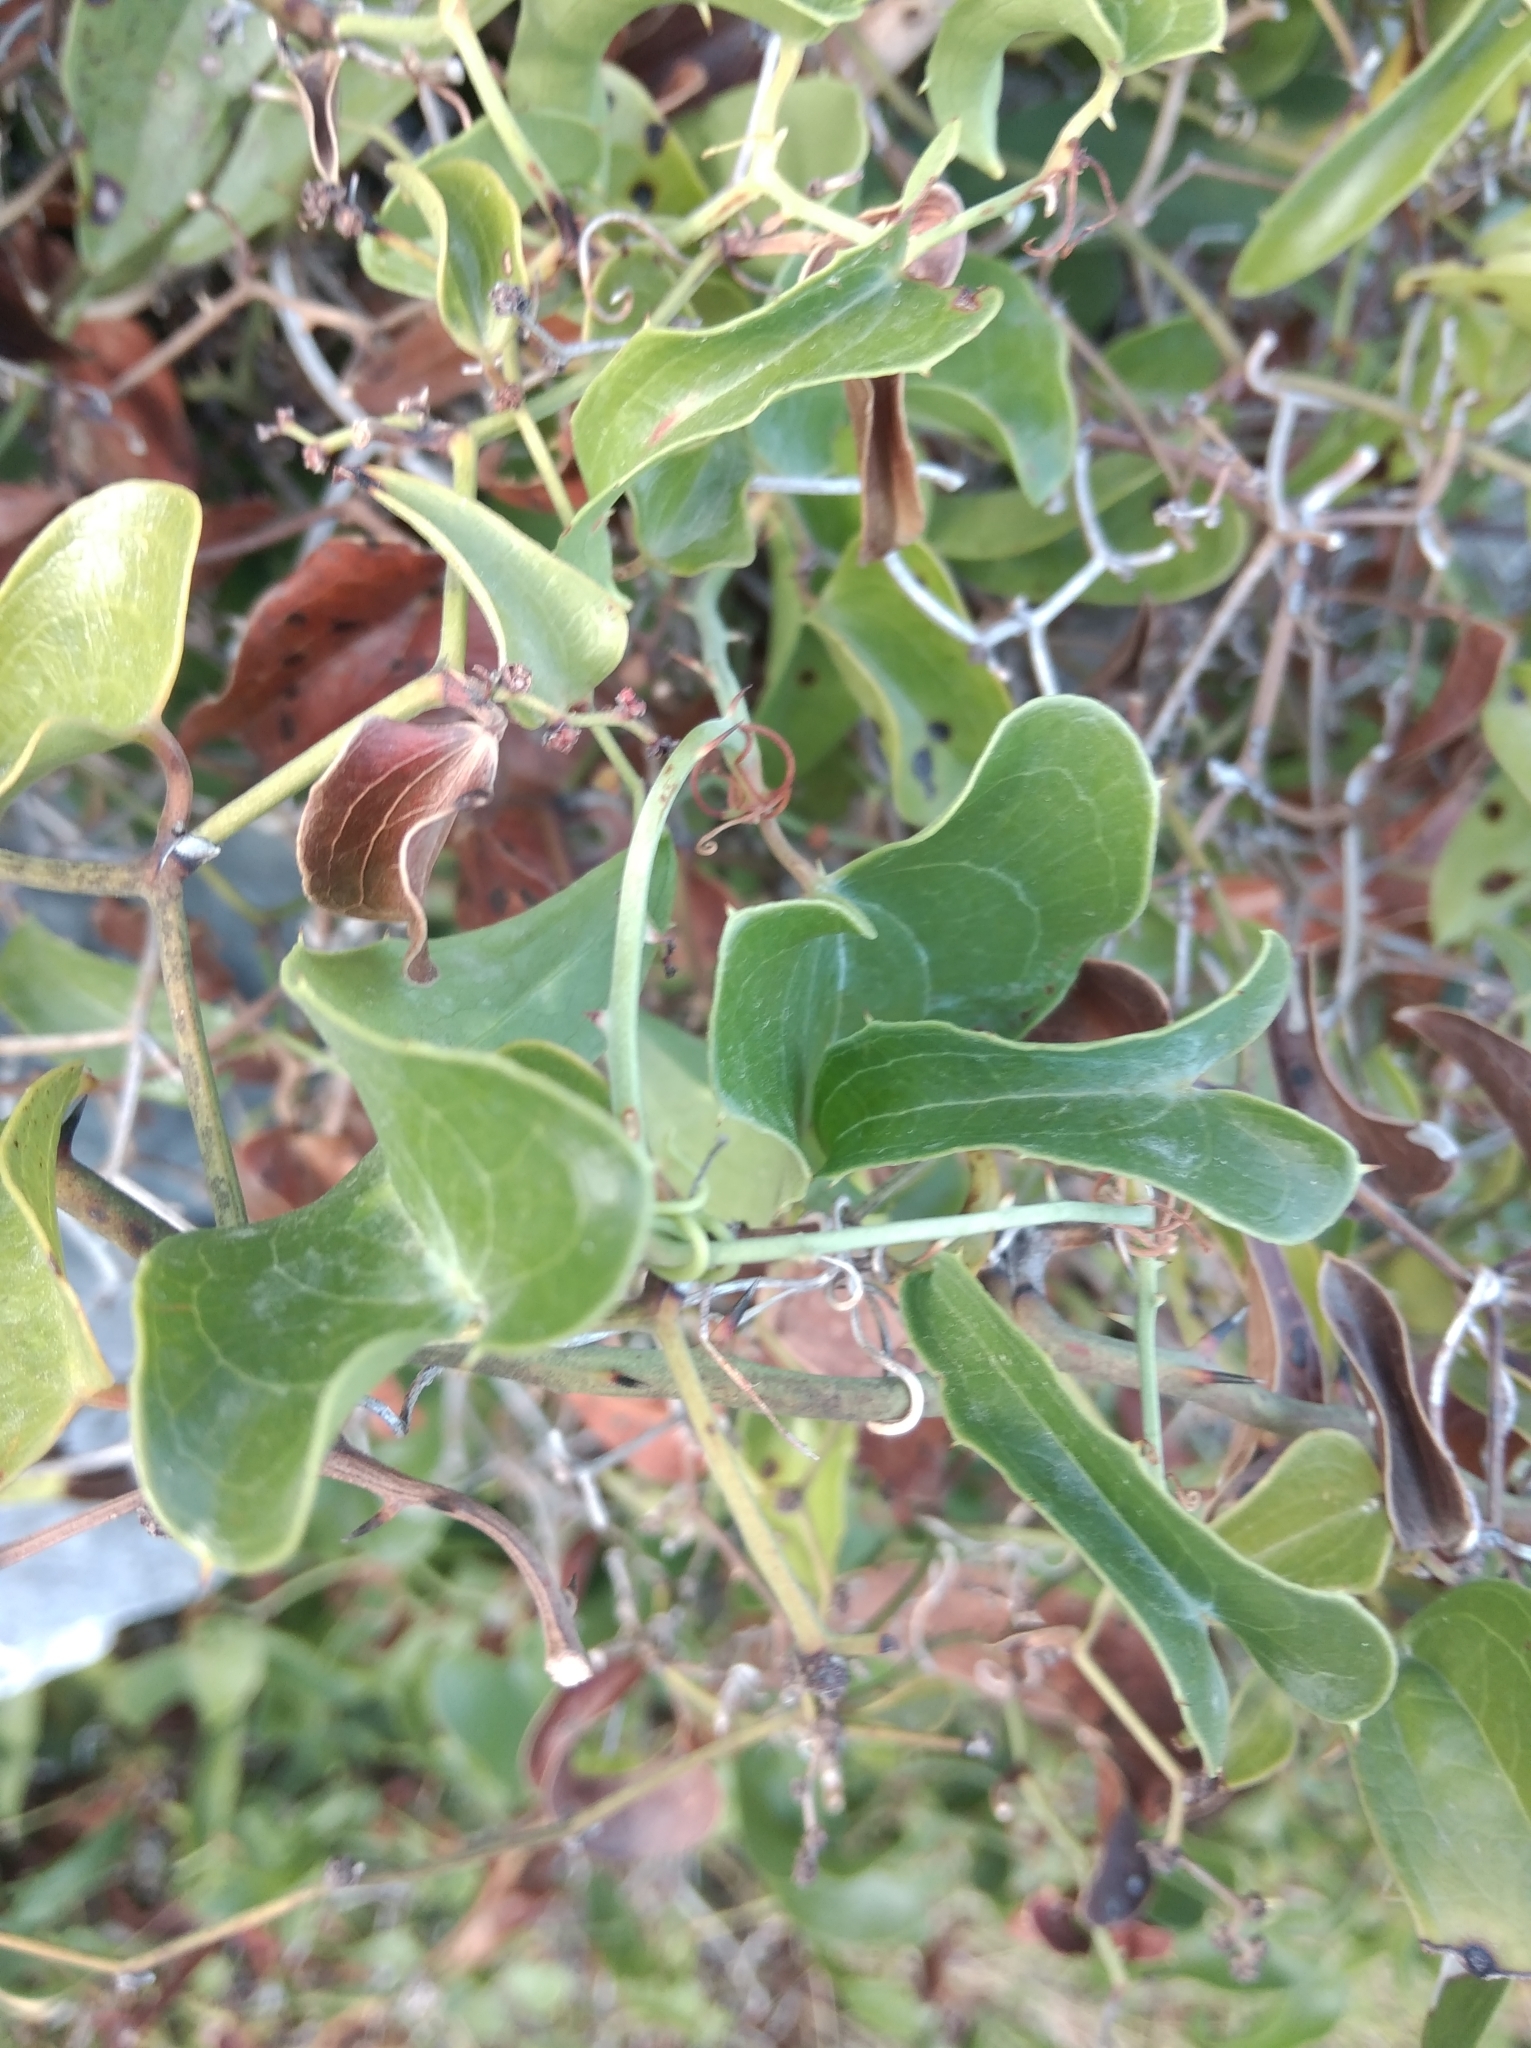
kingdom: Plantae
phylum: Tracheophyta
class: Liliopsida
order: Liliales
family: Smilacaceae
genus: Smilax
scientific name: Smilax aspera
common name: Common smilax
